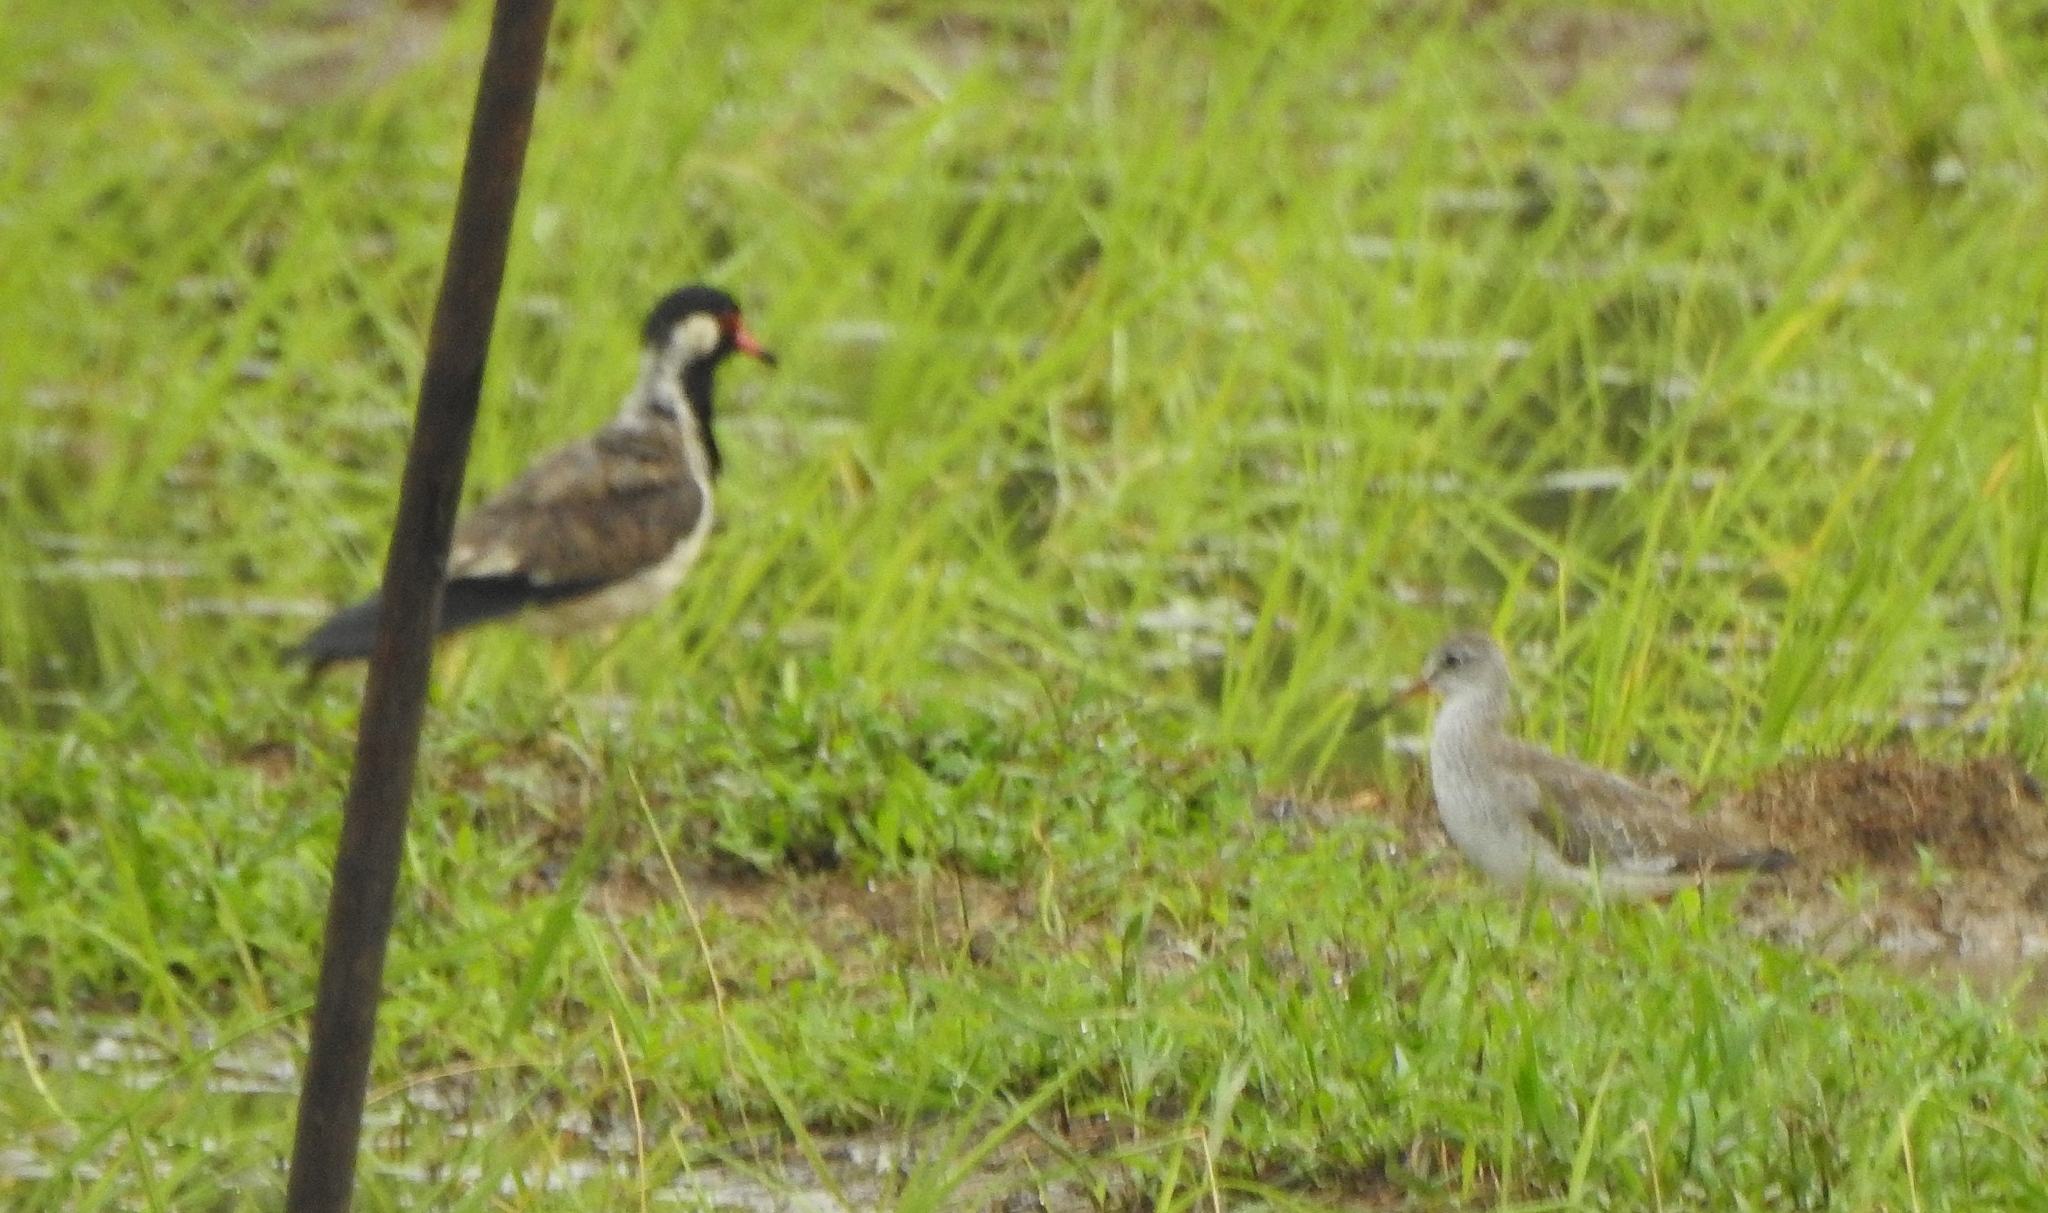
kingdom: Animalia
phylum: Chordata
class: Aves
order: Charadriiformes
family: Charadriidae
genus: Vanellus
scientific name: Vanellus indicus
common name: Red-wattled lapwing
